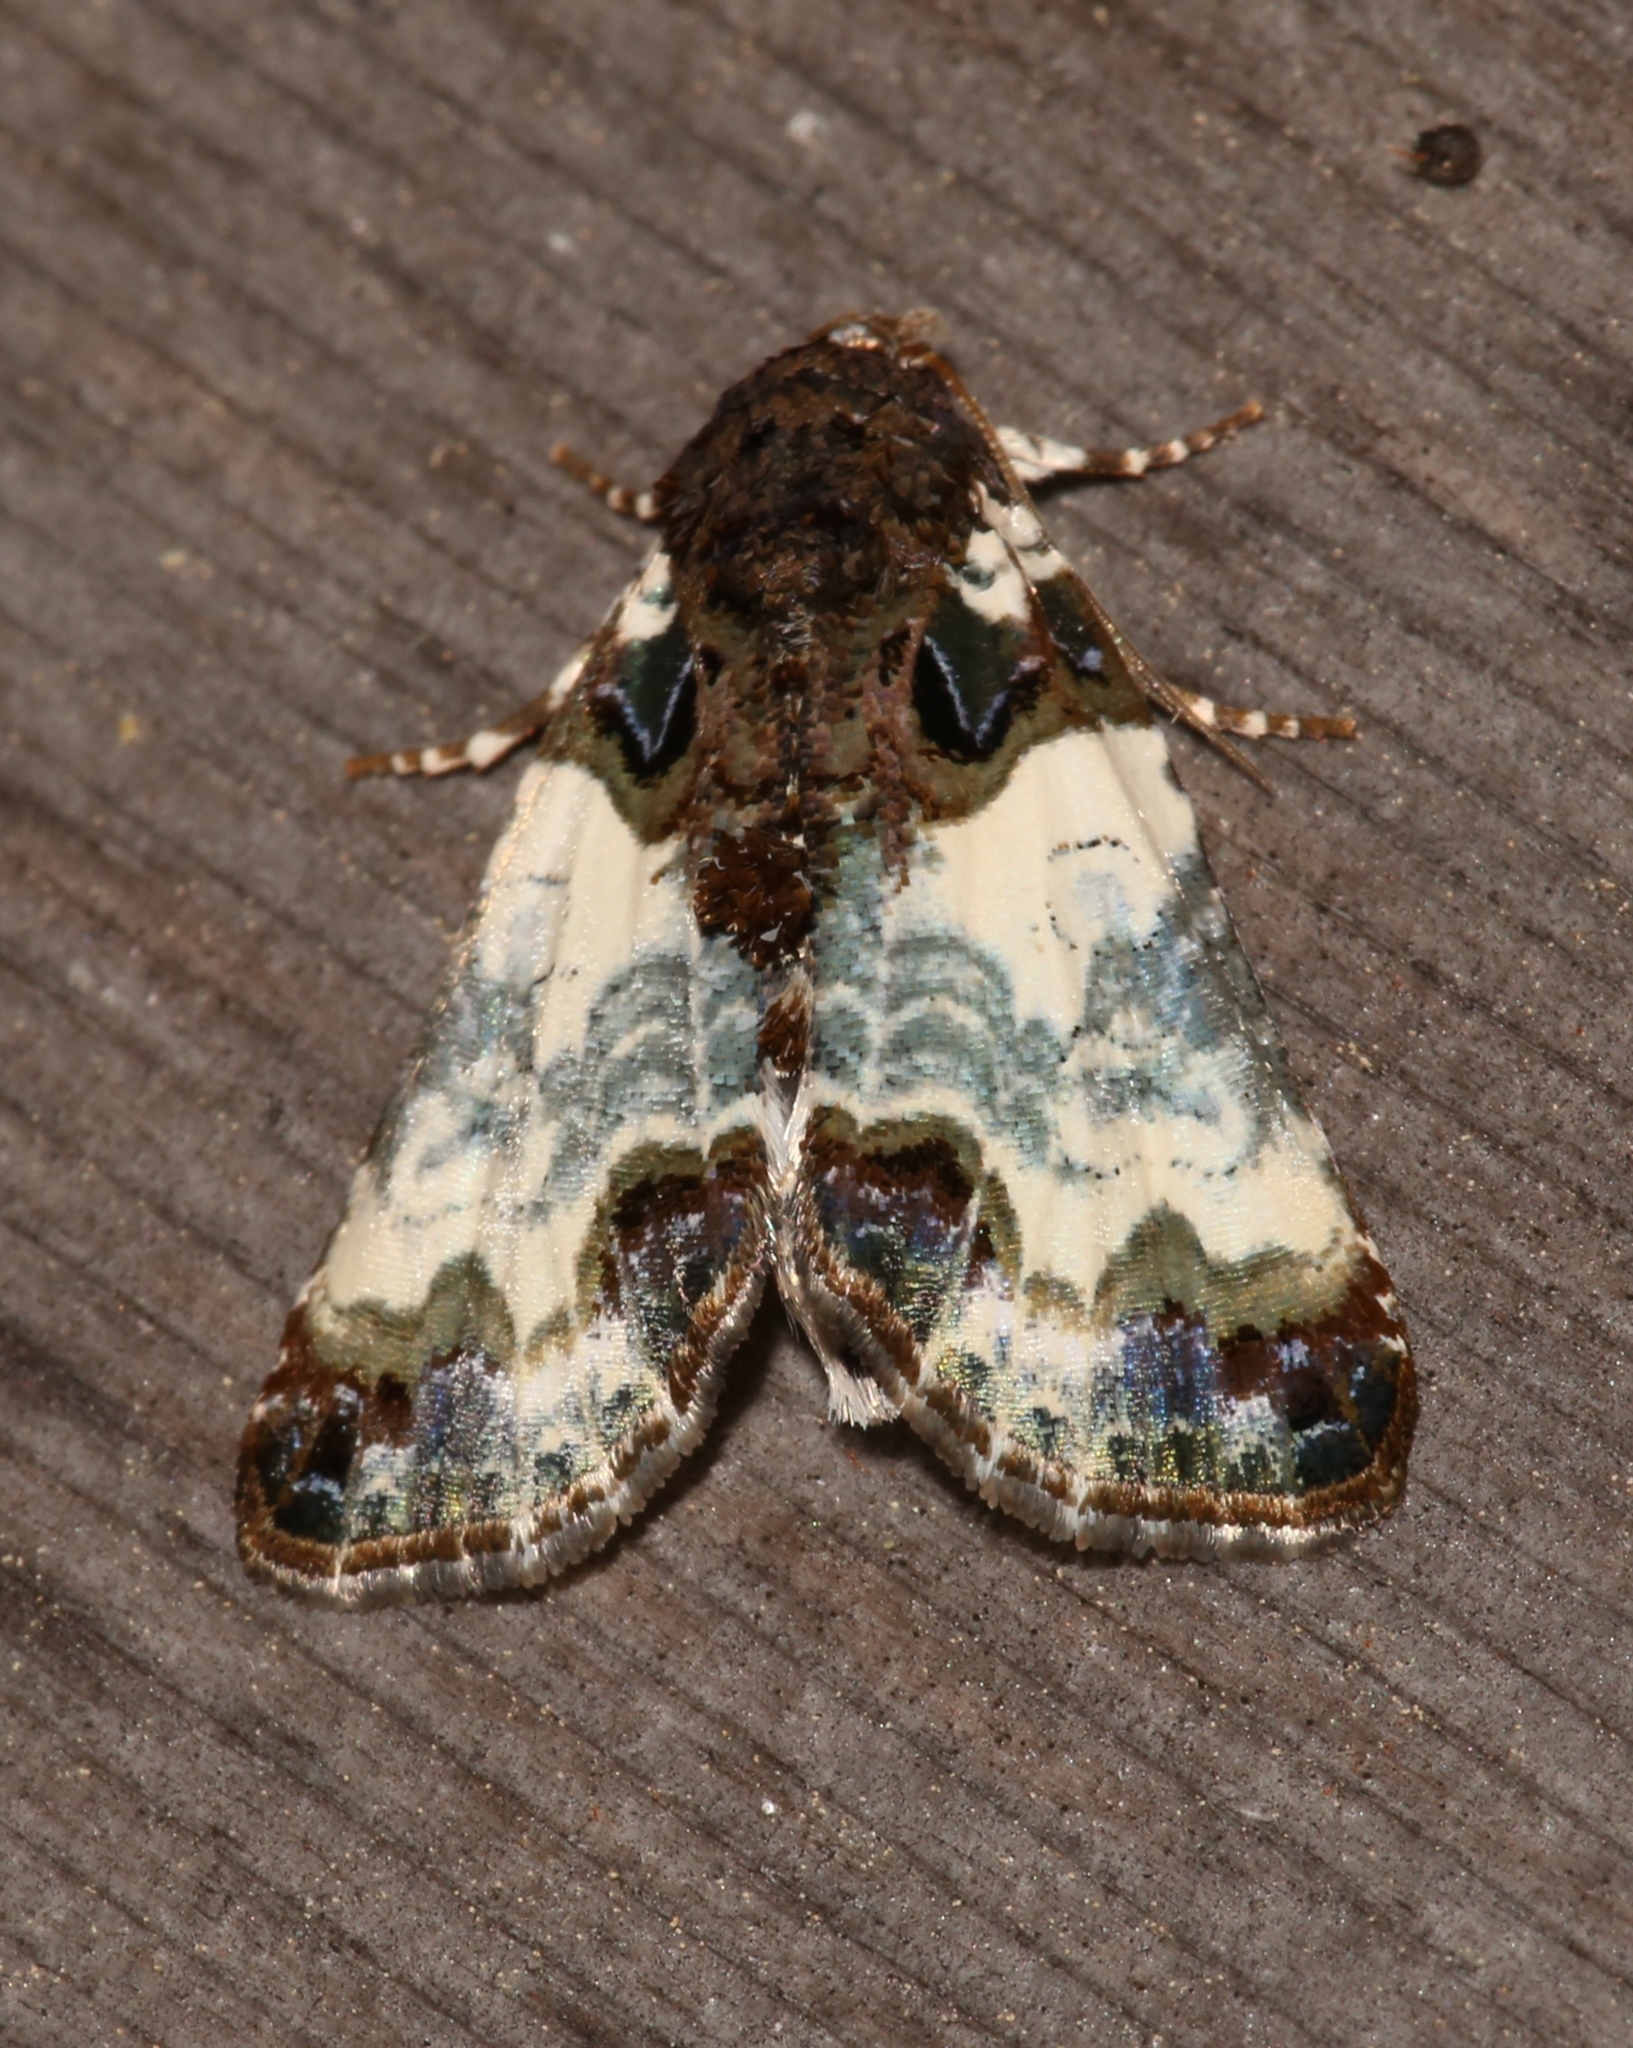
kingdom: Animalia
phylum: Arthropoda
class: Insecta
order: Lepidoptera
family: Noctuidae
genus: Cerma
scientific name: Cerma cerintha
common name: Tufted bird-dropping moth
